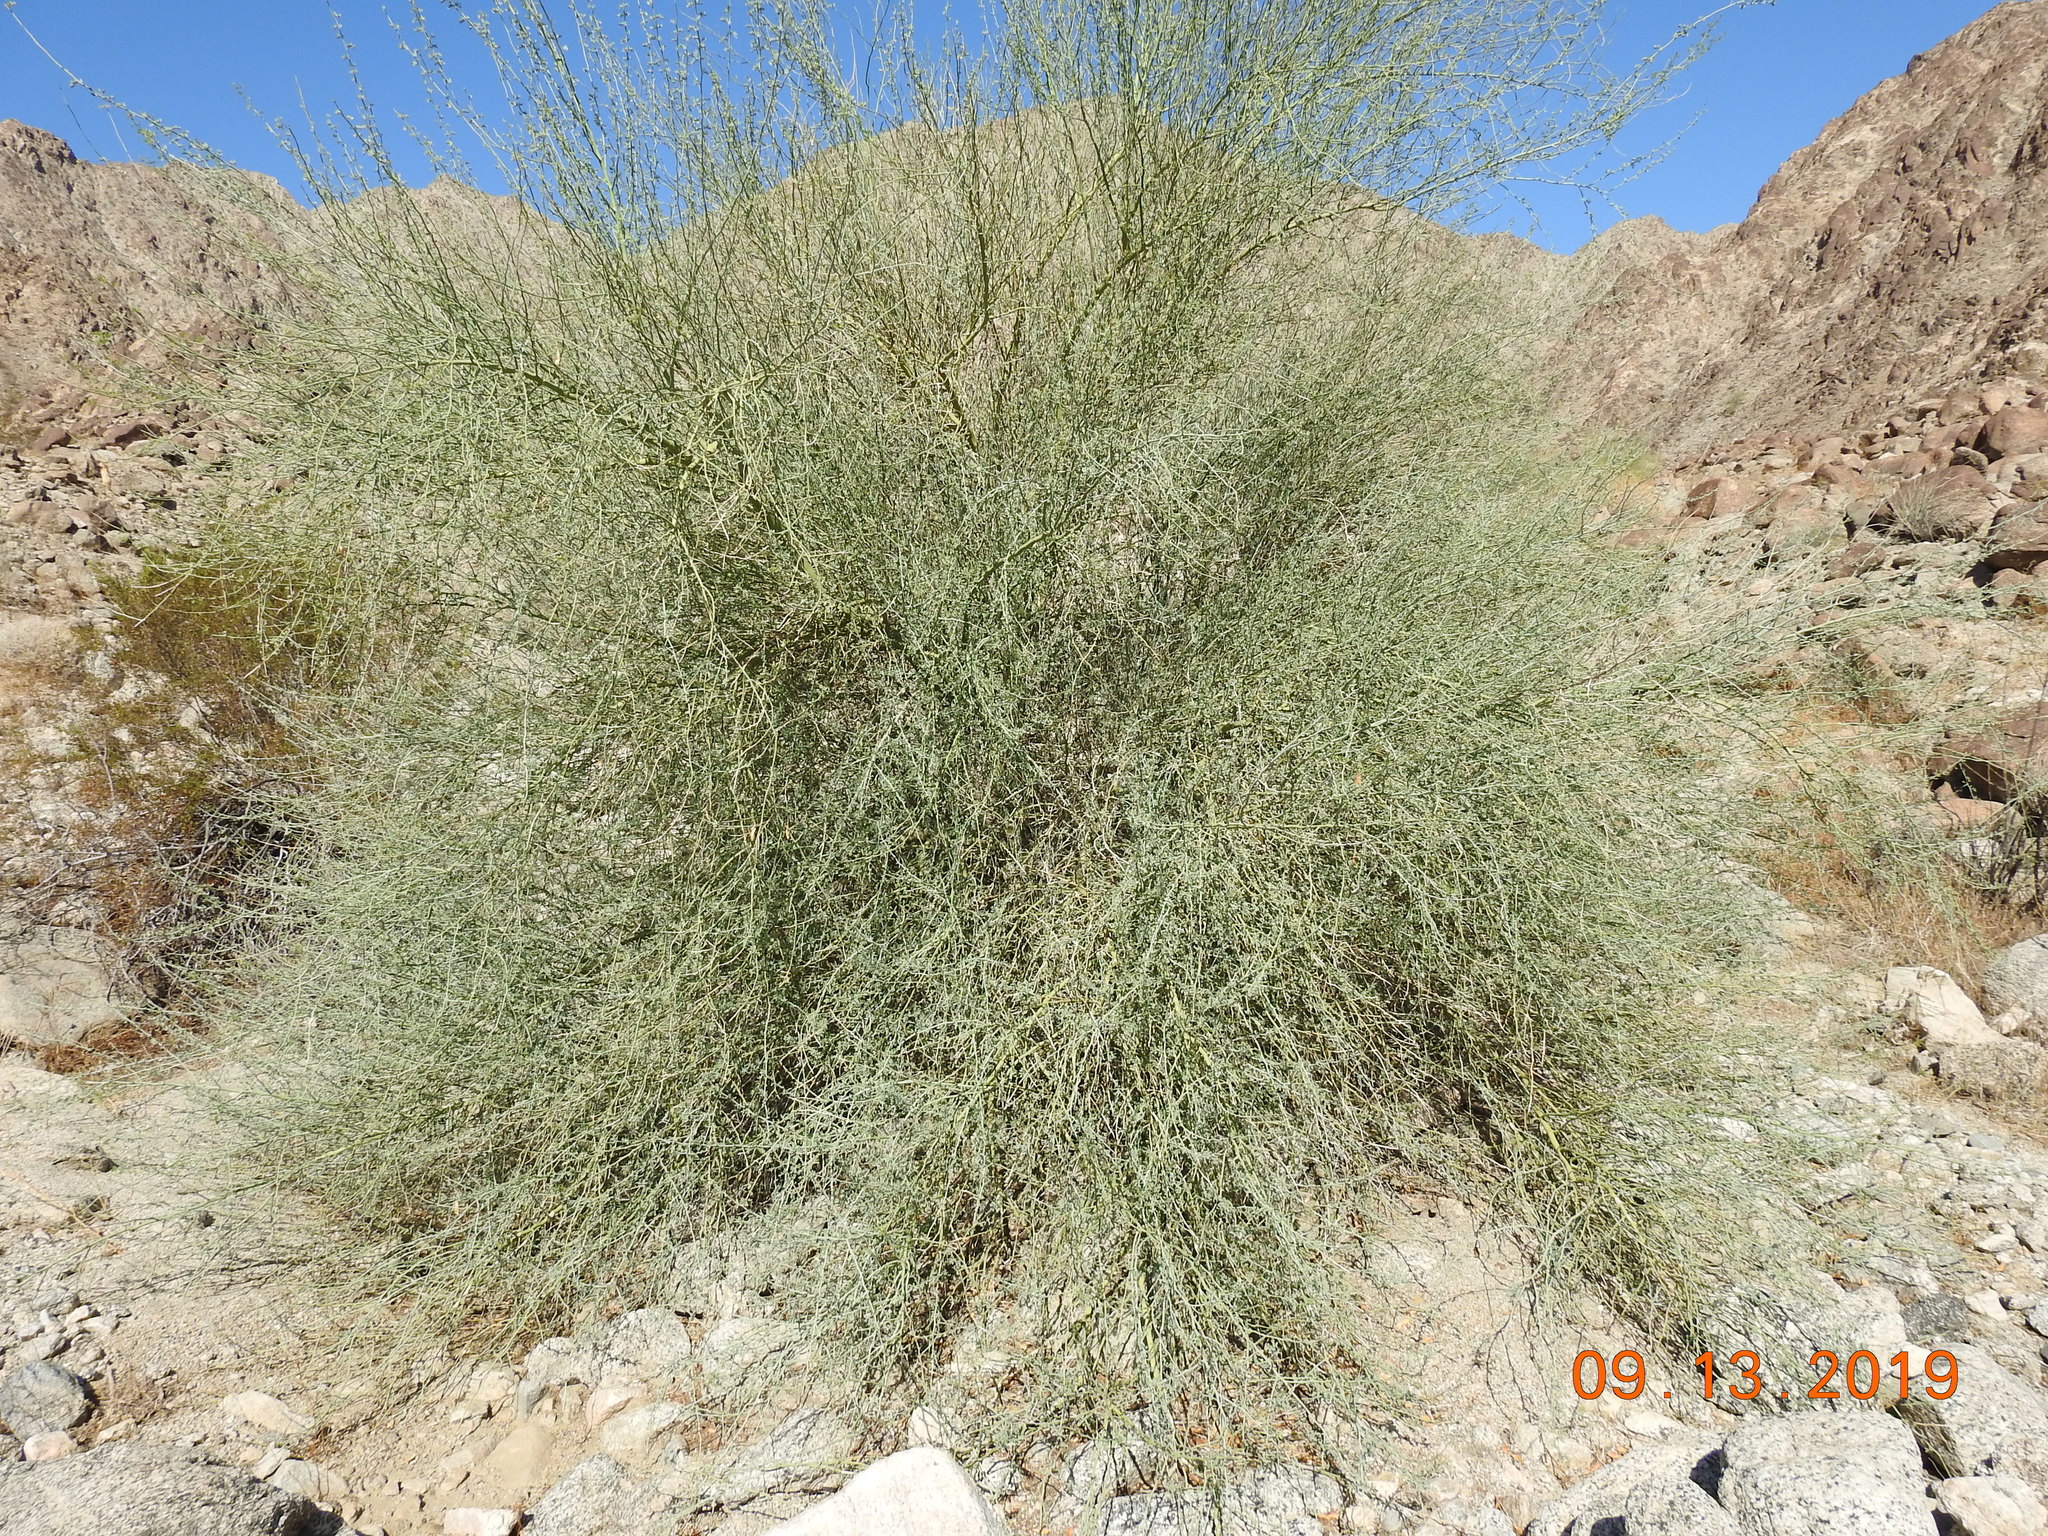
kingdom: Plantae
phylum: Tracheophyta
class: Magnoliopsida
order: Fabales
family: Fabaceae
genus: Parkinsonia
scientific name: Parkinsonia florida
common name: Blue paloverde
